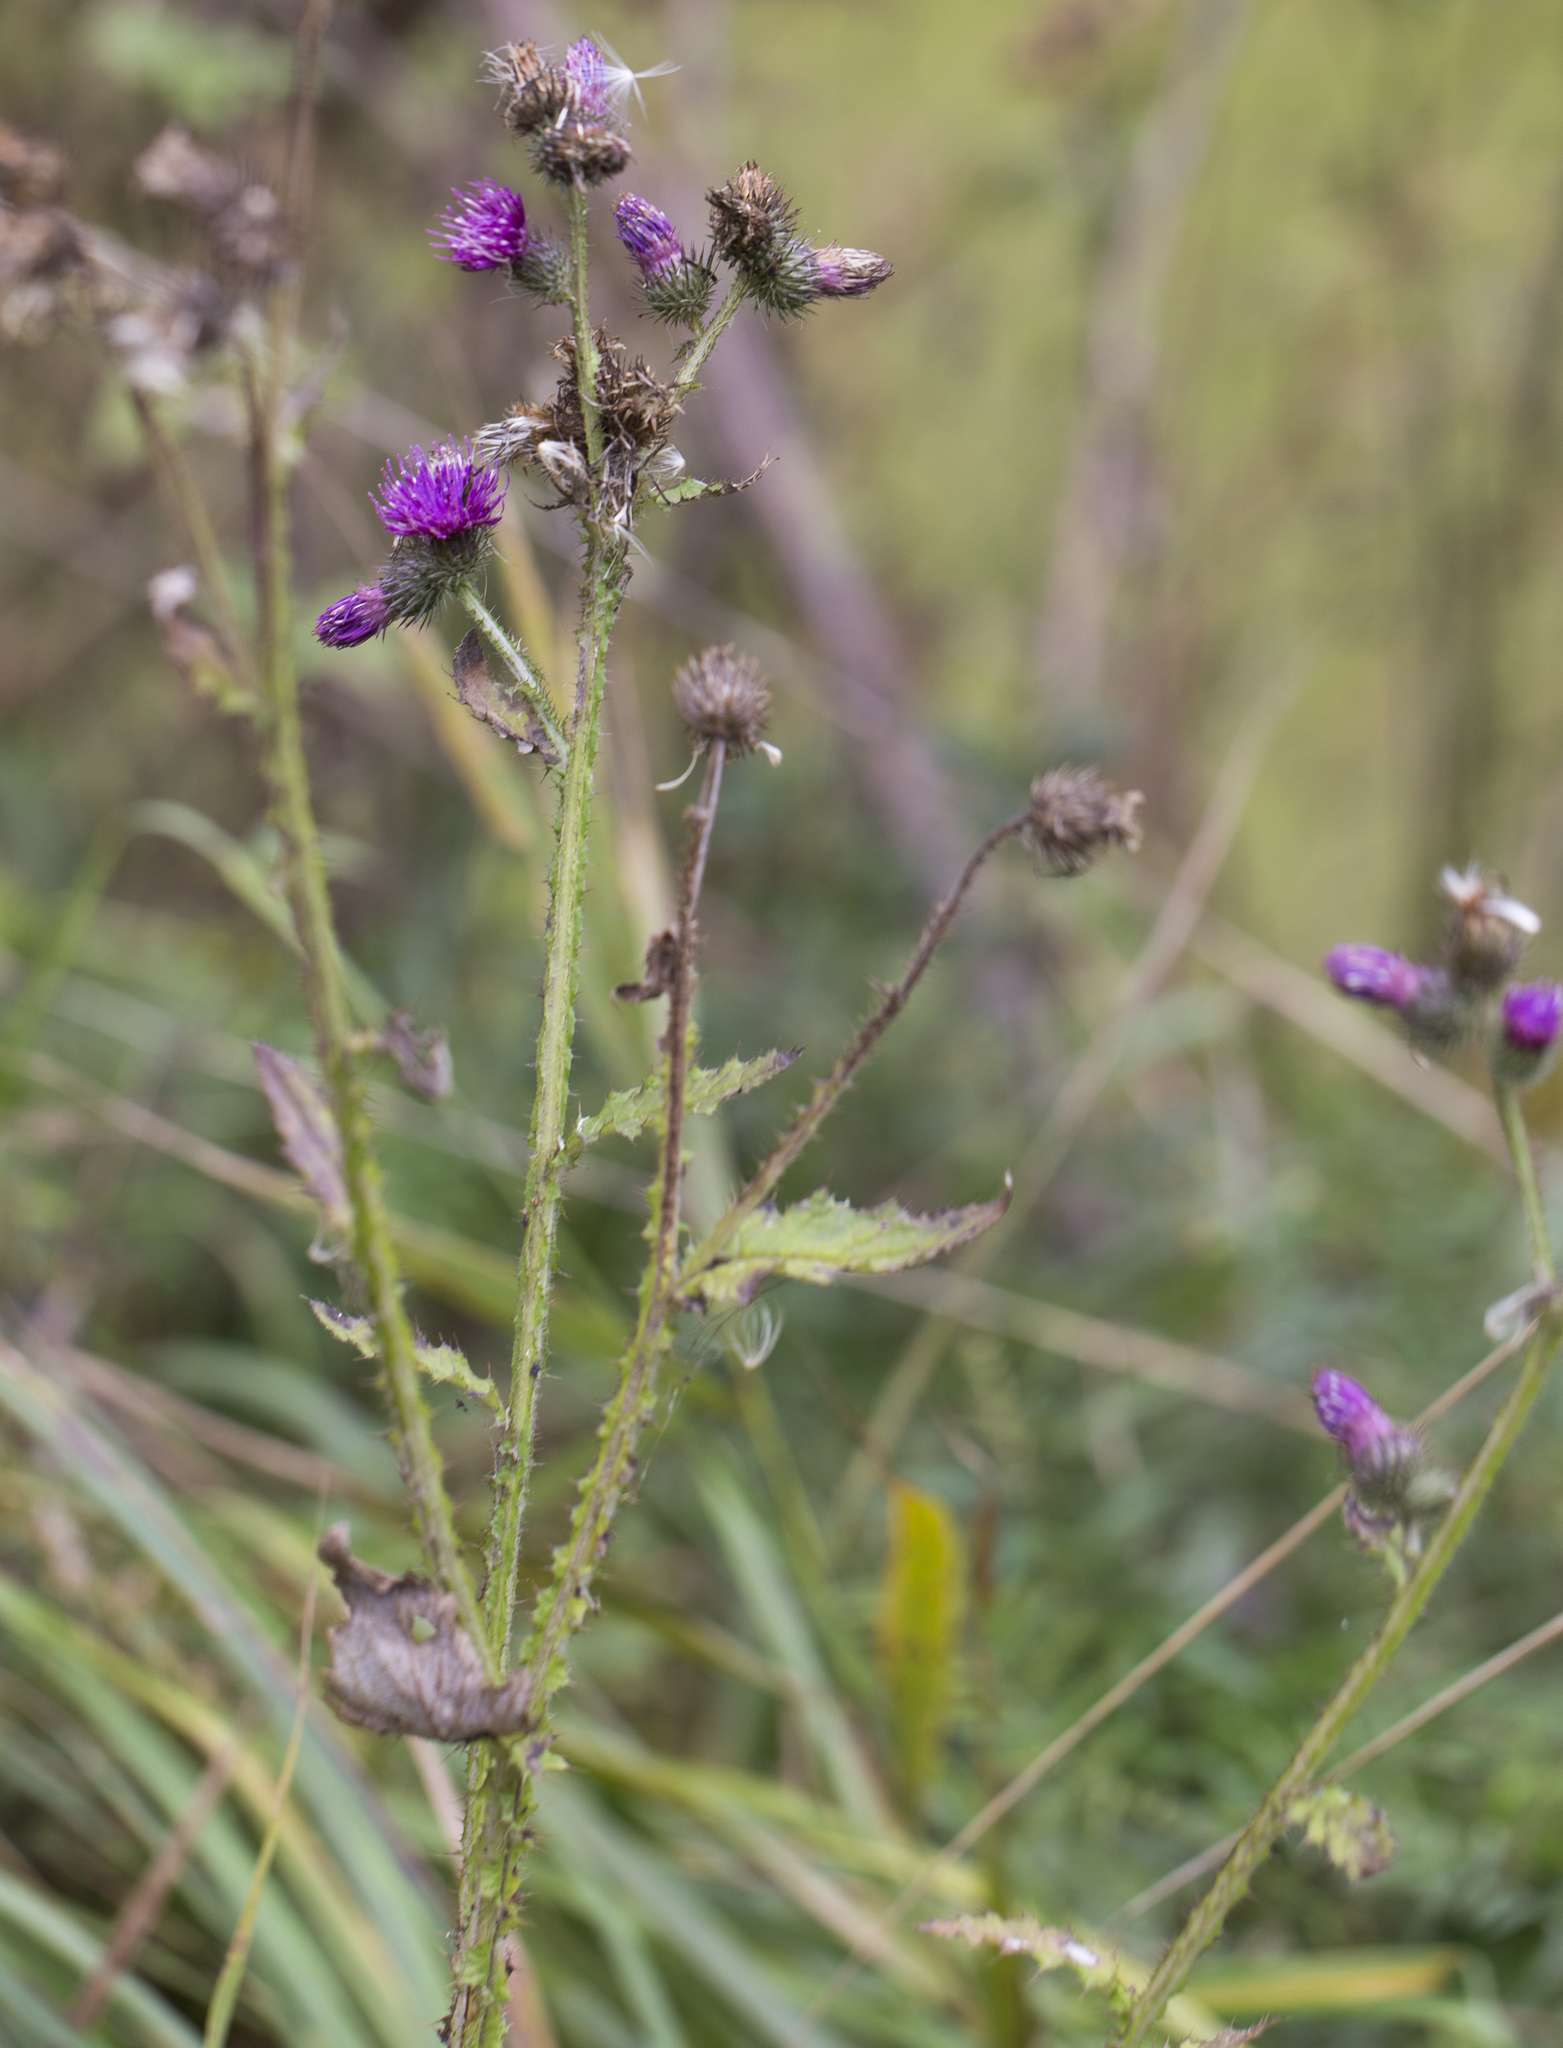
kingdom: Plantae
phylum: Tracheophyta
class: Magnoliopsida
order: Asterales
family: Asteraceae
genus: Carduus
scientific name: Carduus crispus
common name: Welted thistle
